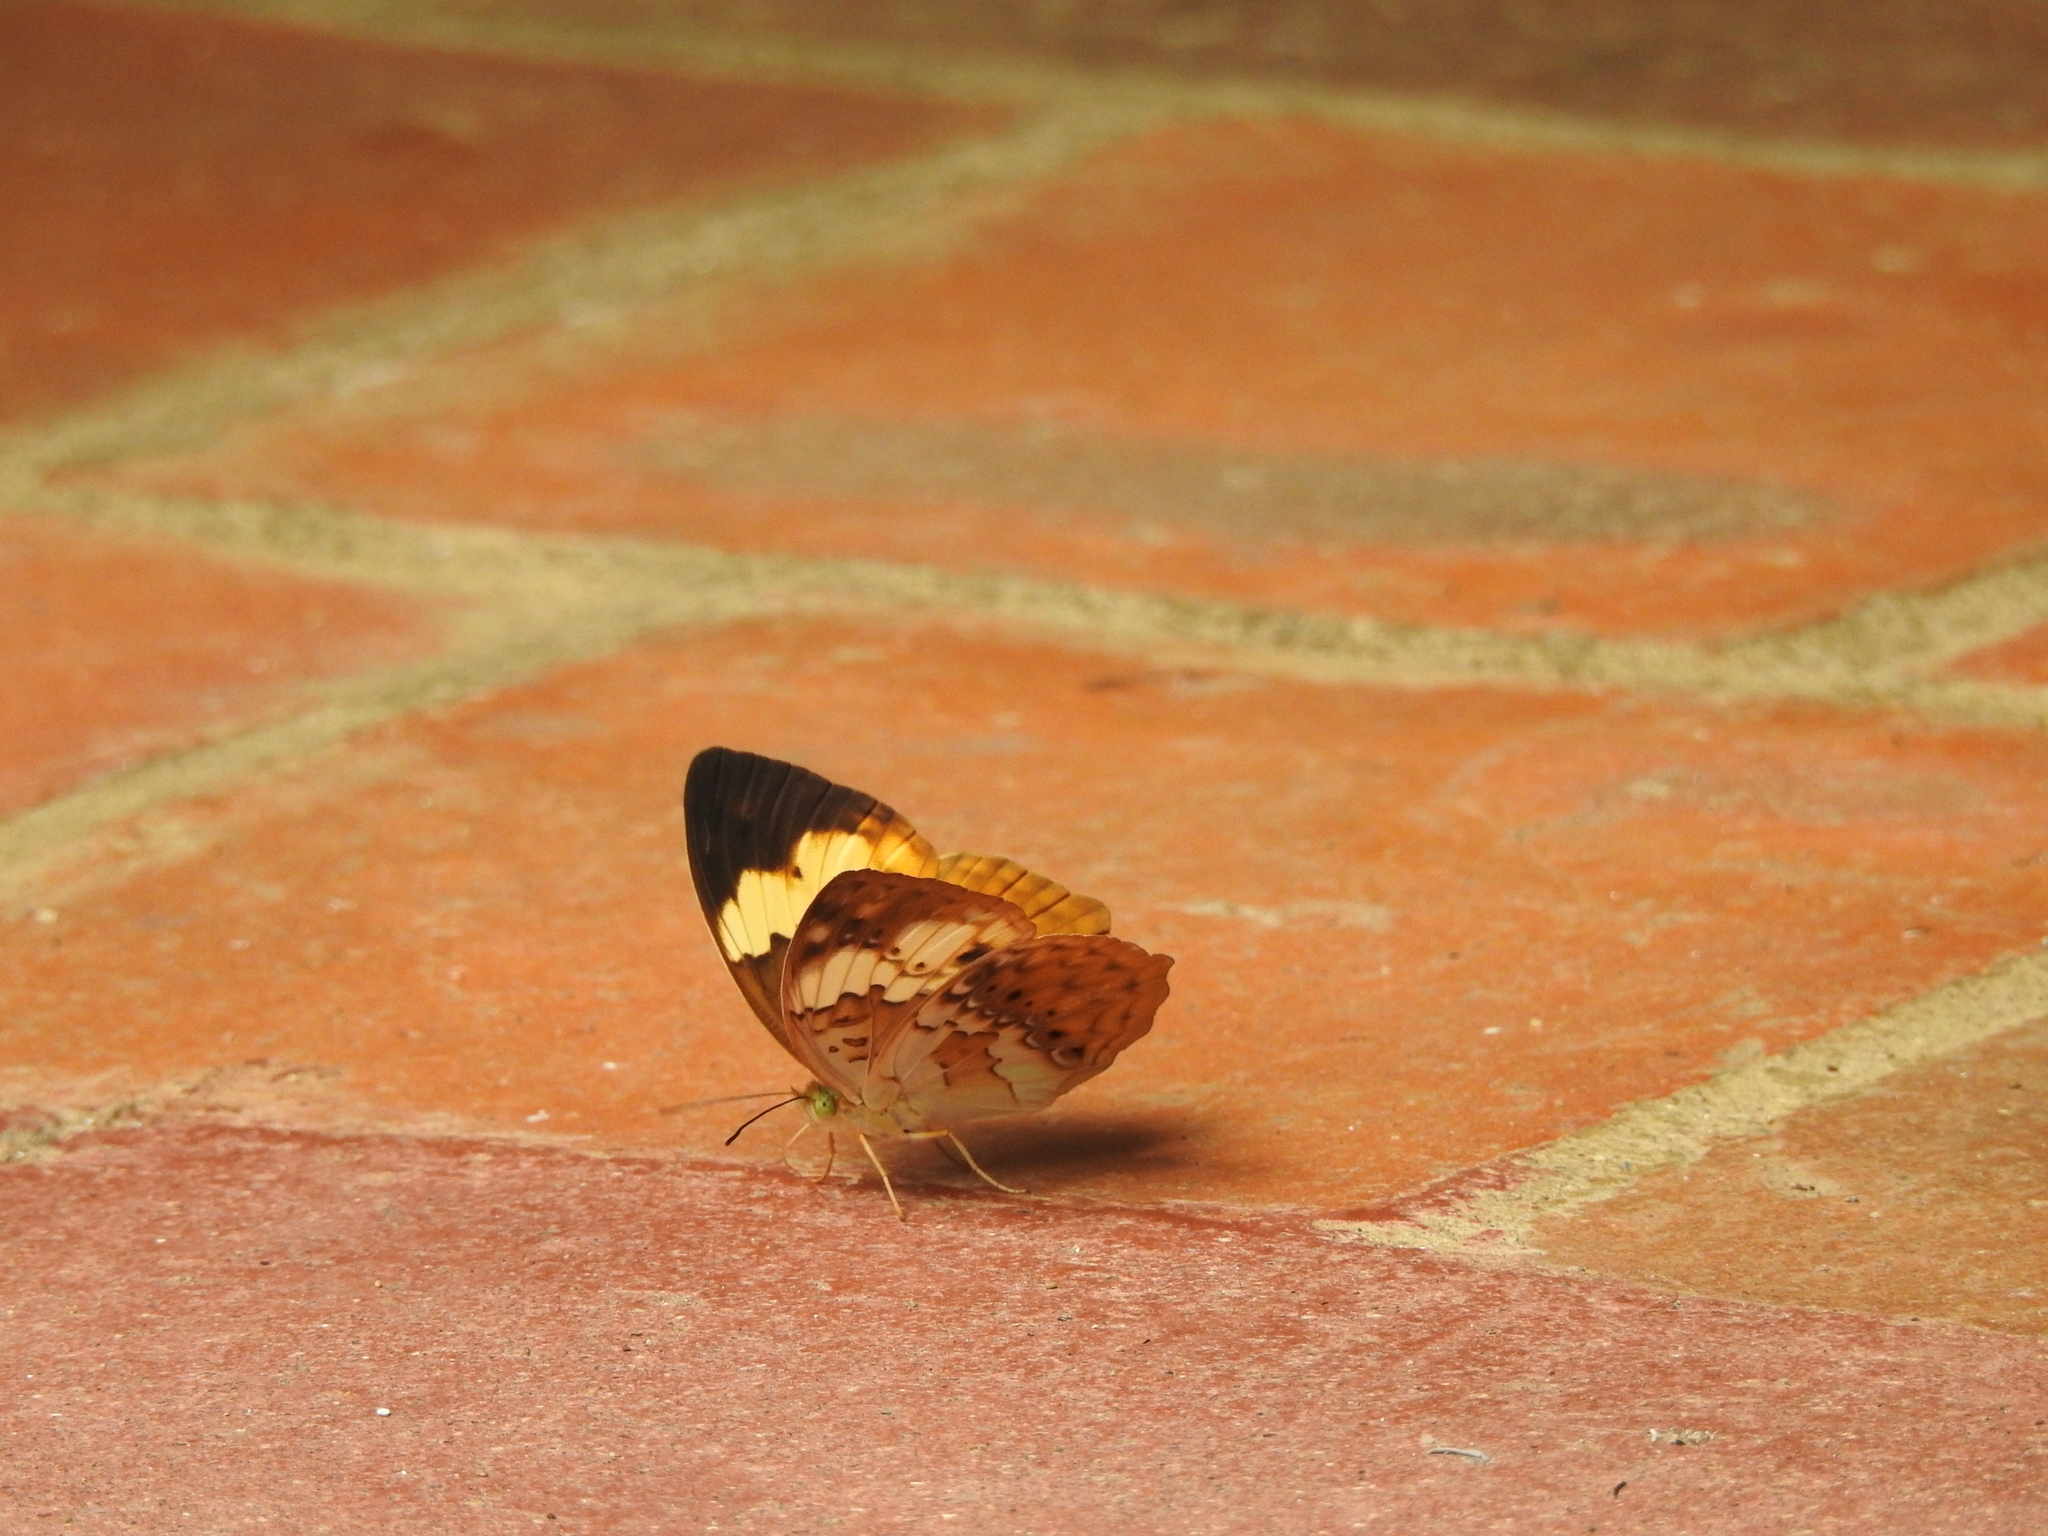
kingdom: Animalia
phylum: Arthropoda
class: Insecta
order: Lepidoptera
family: Nymphalidae
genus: Cupha
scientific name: Cupha erymanthis
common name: Rustic
